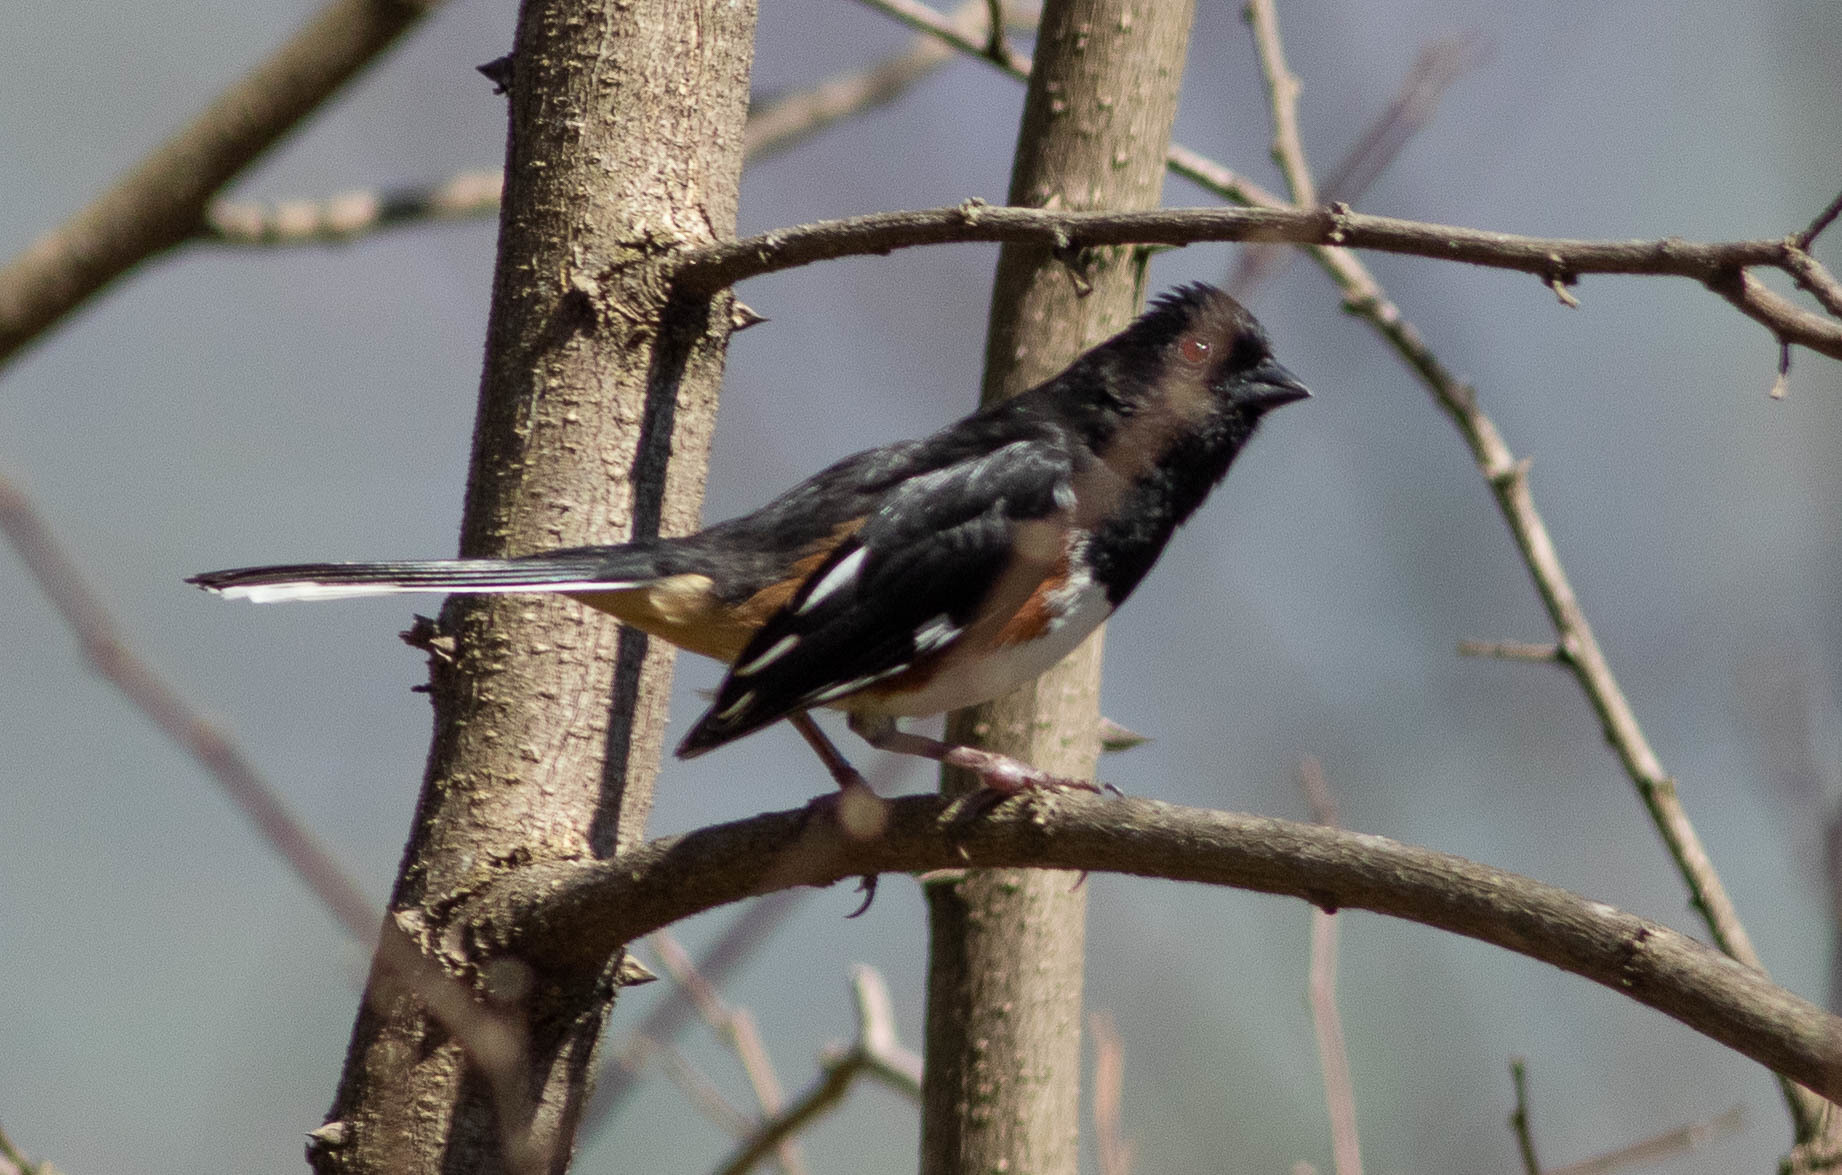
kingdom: Animalia
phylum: Chordata
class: Aves
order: Passeriformes
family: Passerellidae
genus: Pipilo
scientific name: Pipilo erythrophthalmus
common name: Eastern towhee
